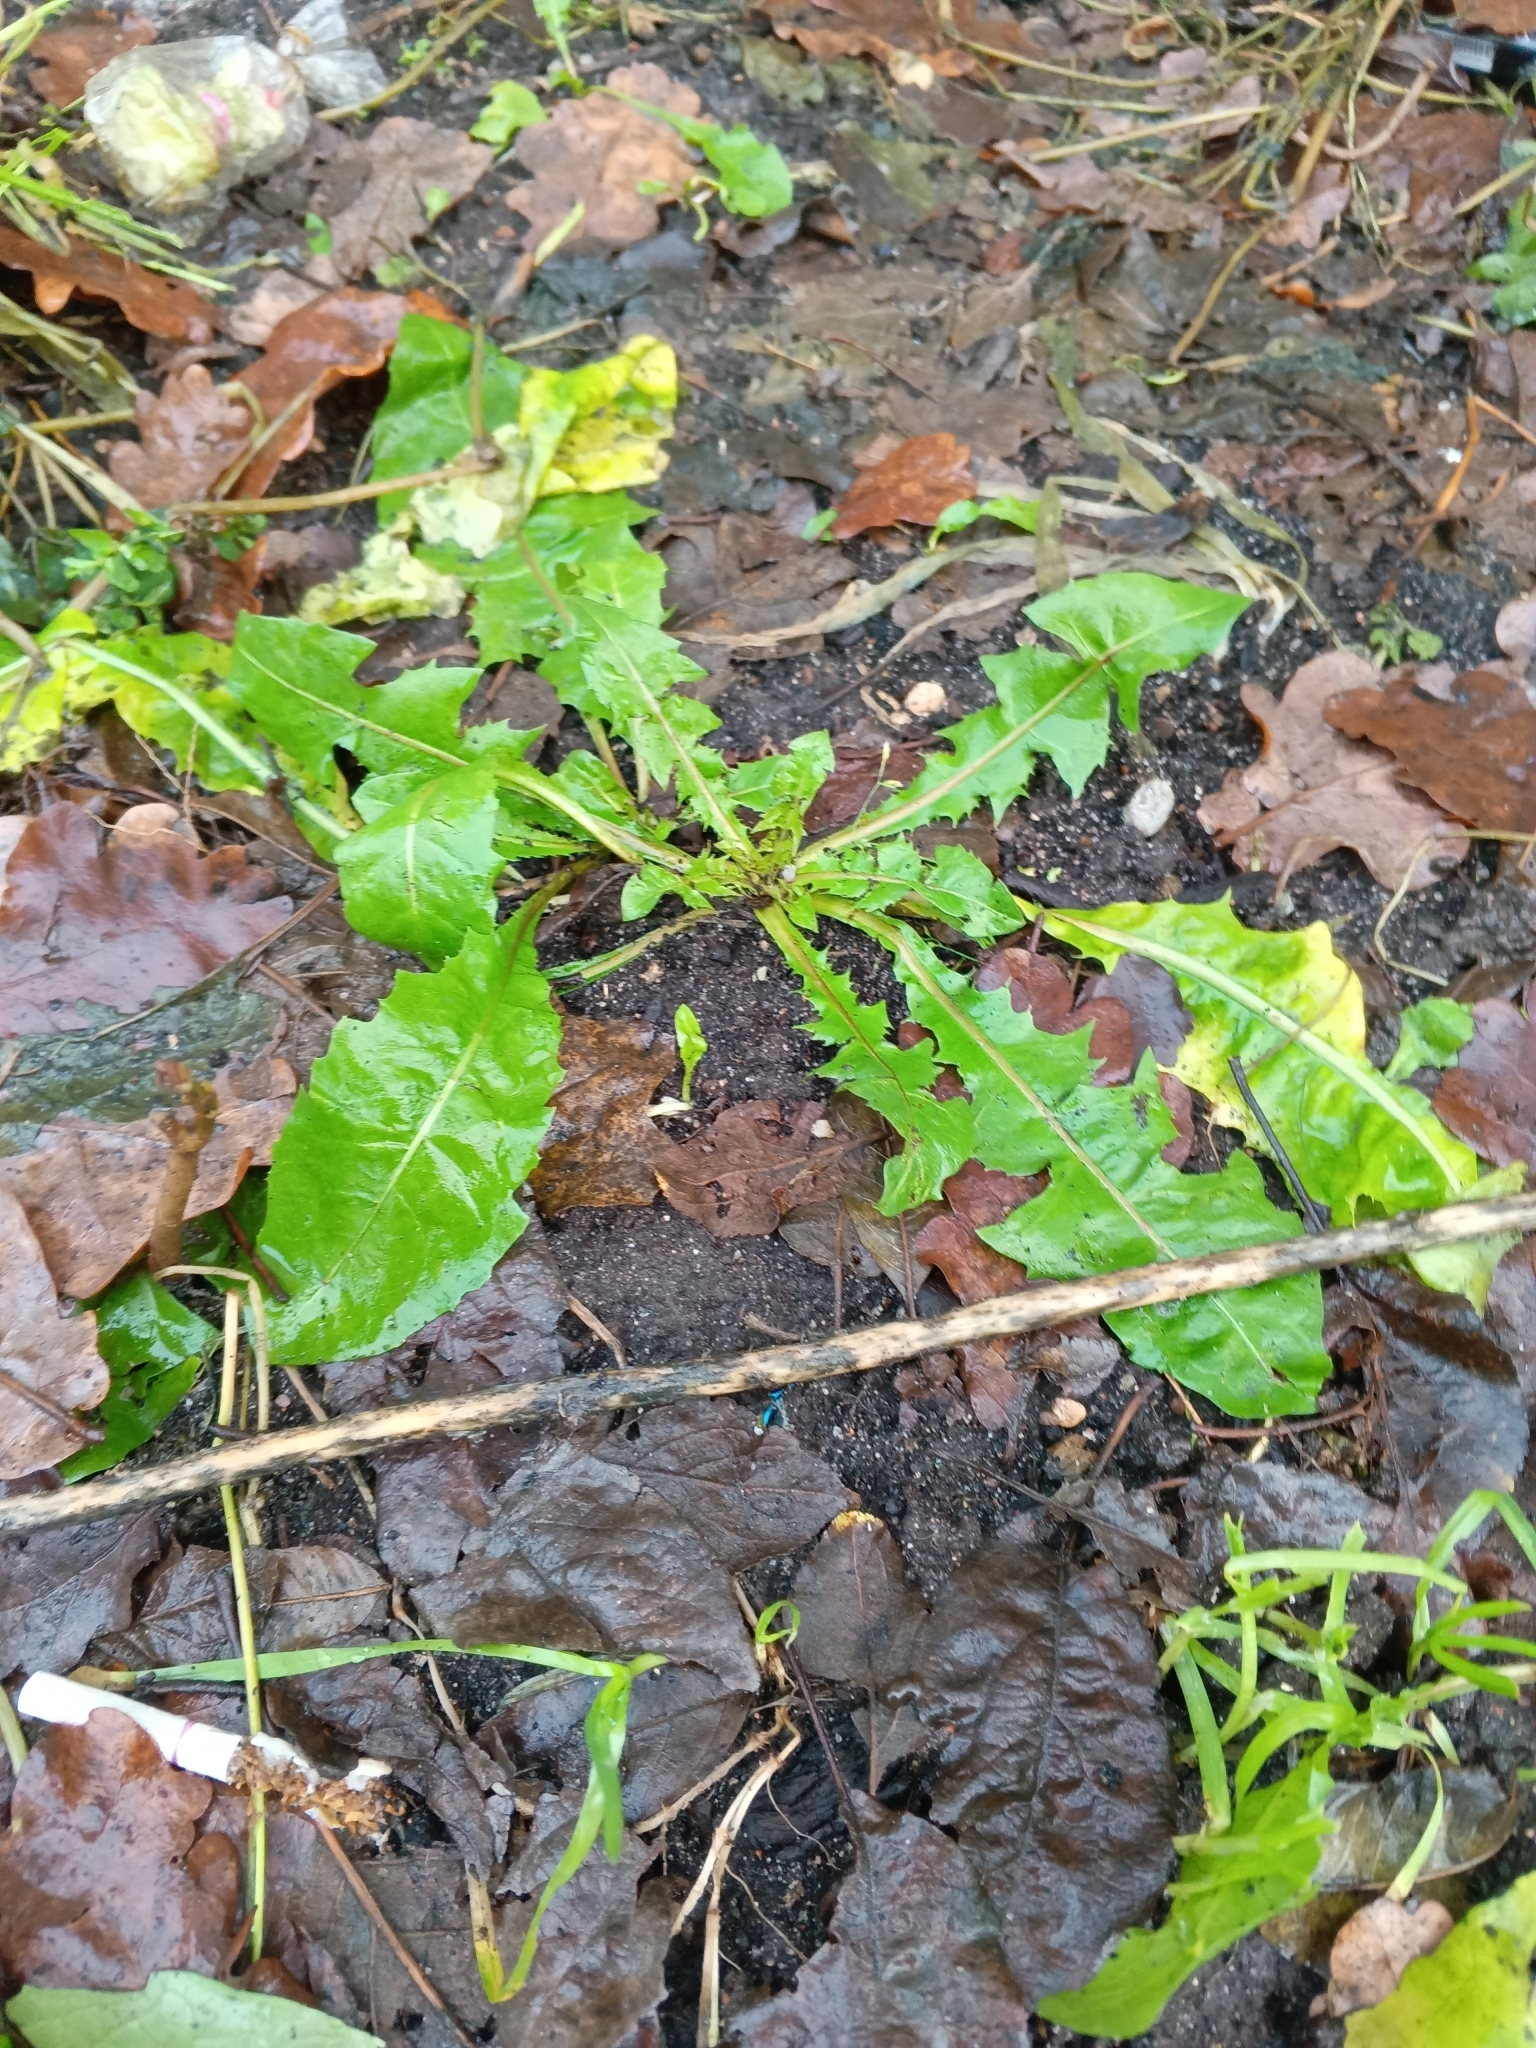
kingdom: Plantae
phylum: Tracheophyta
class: Magnoliopsida
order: Asterales
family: Asteraceae
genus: Taraxacum
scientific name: Taraxacum officinale
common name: Common dandelion
